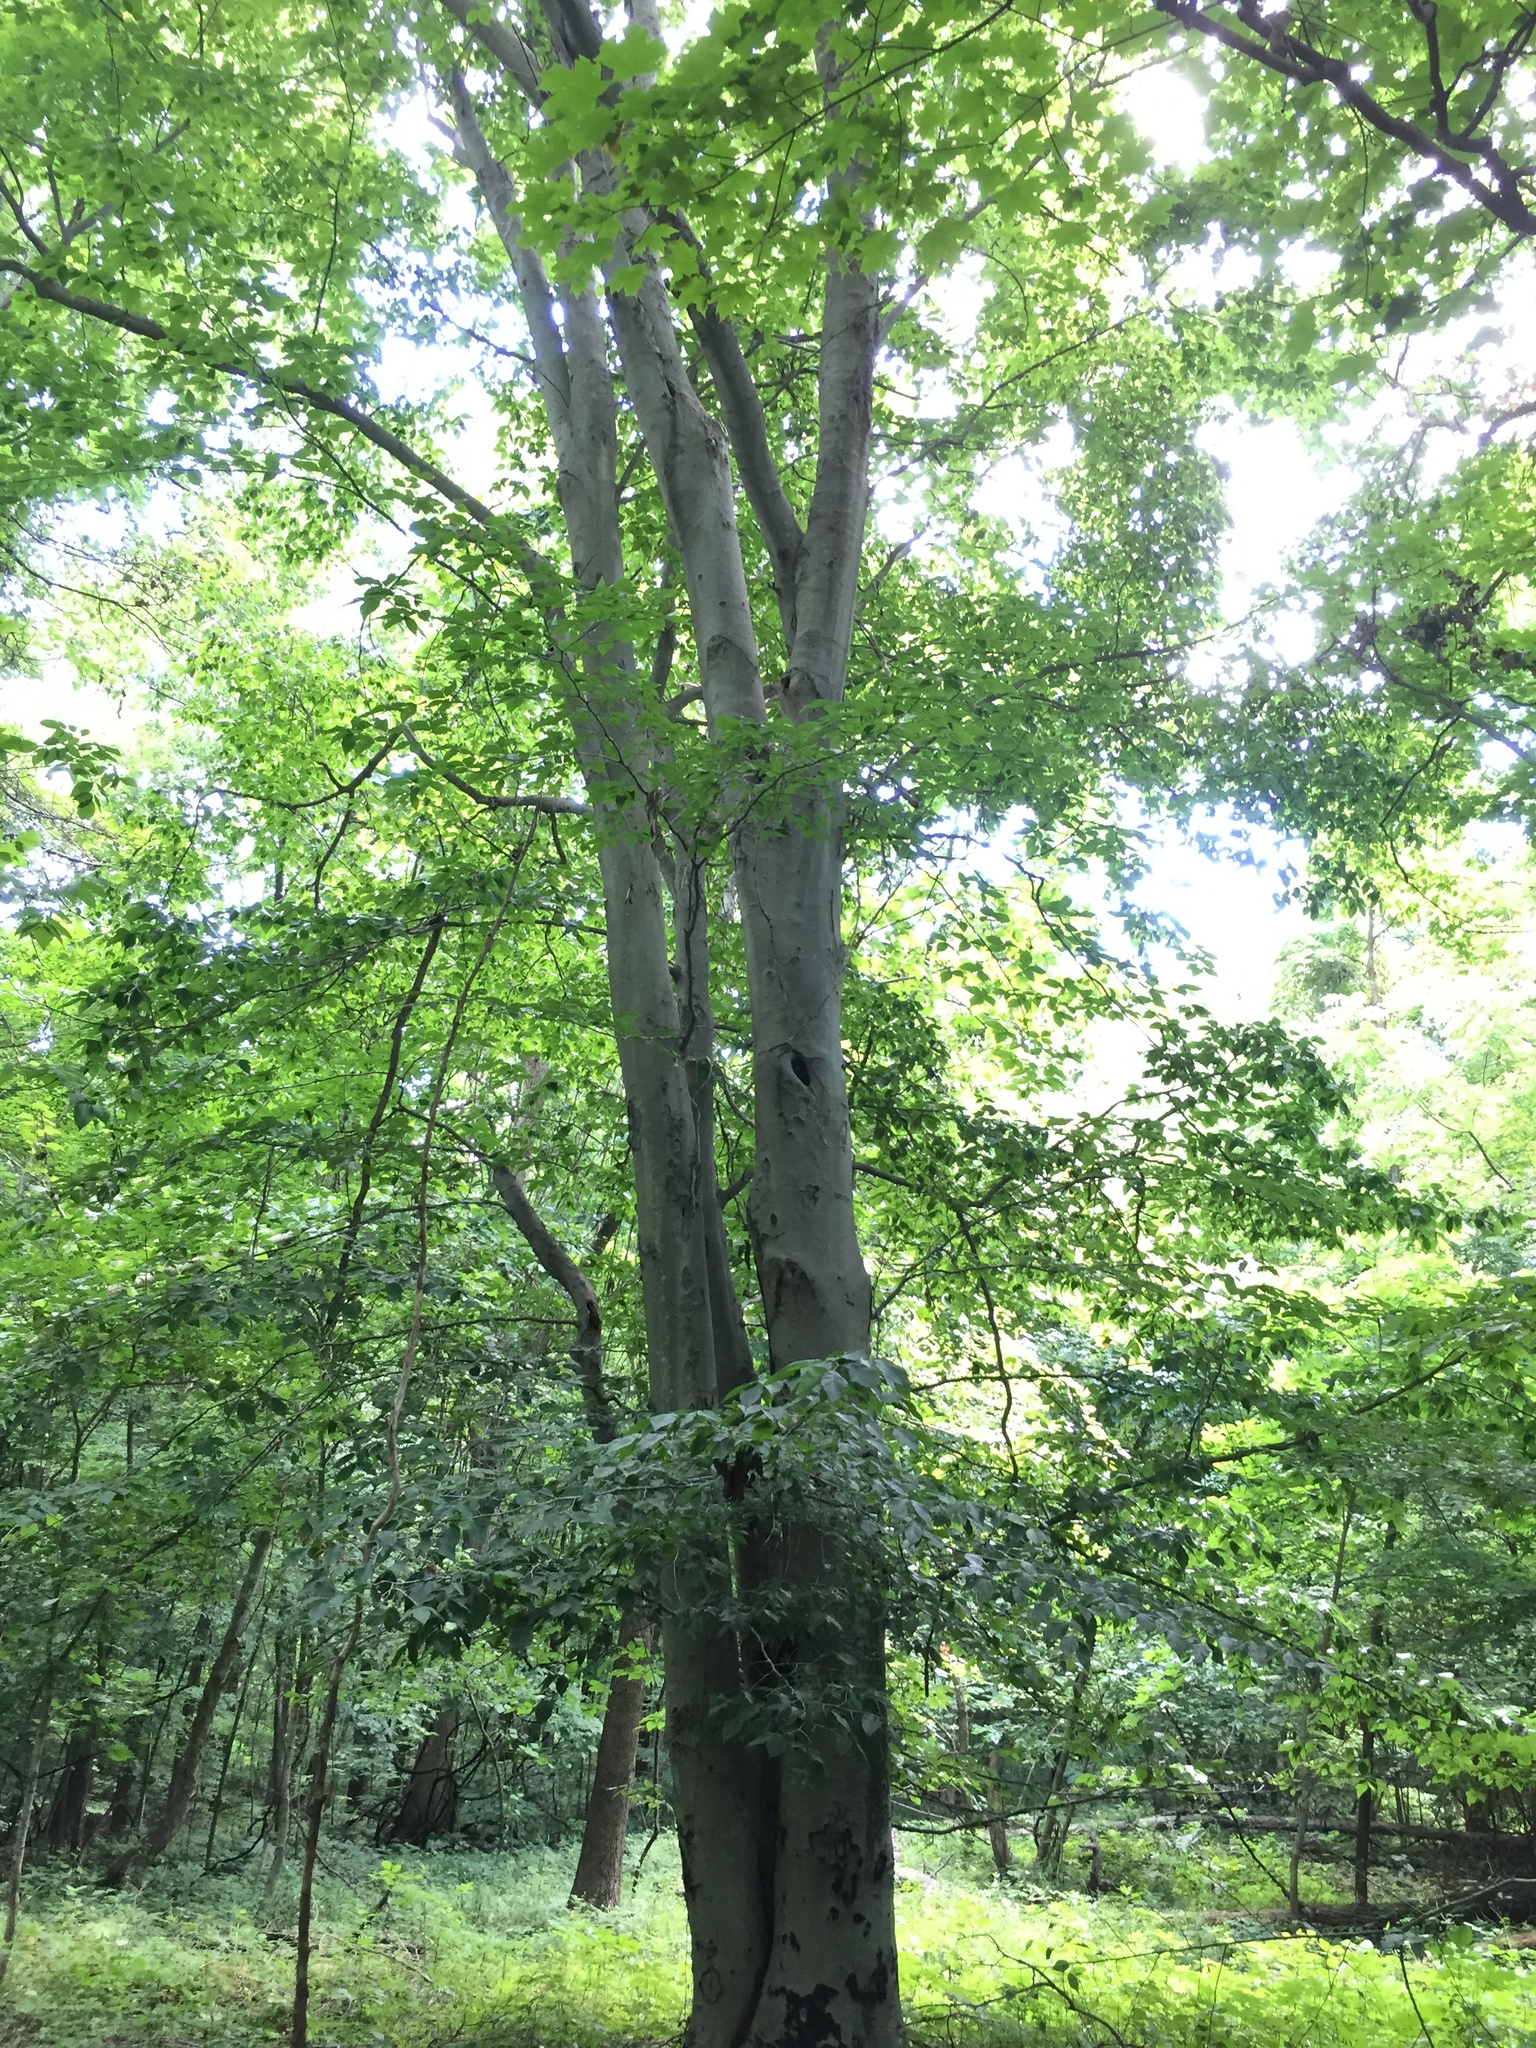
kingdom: Plantae
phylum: Tracheophyta
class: Magnoliopsida
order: Fagales
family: Fagaceae
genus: Fagus
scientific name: Fagus grandifolia
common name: American beech
